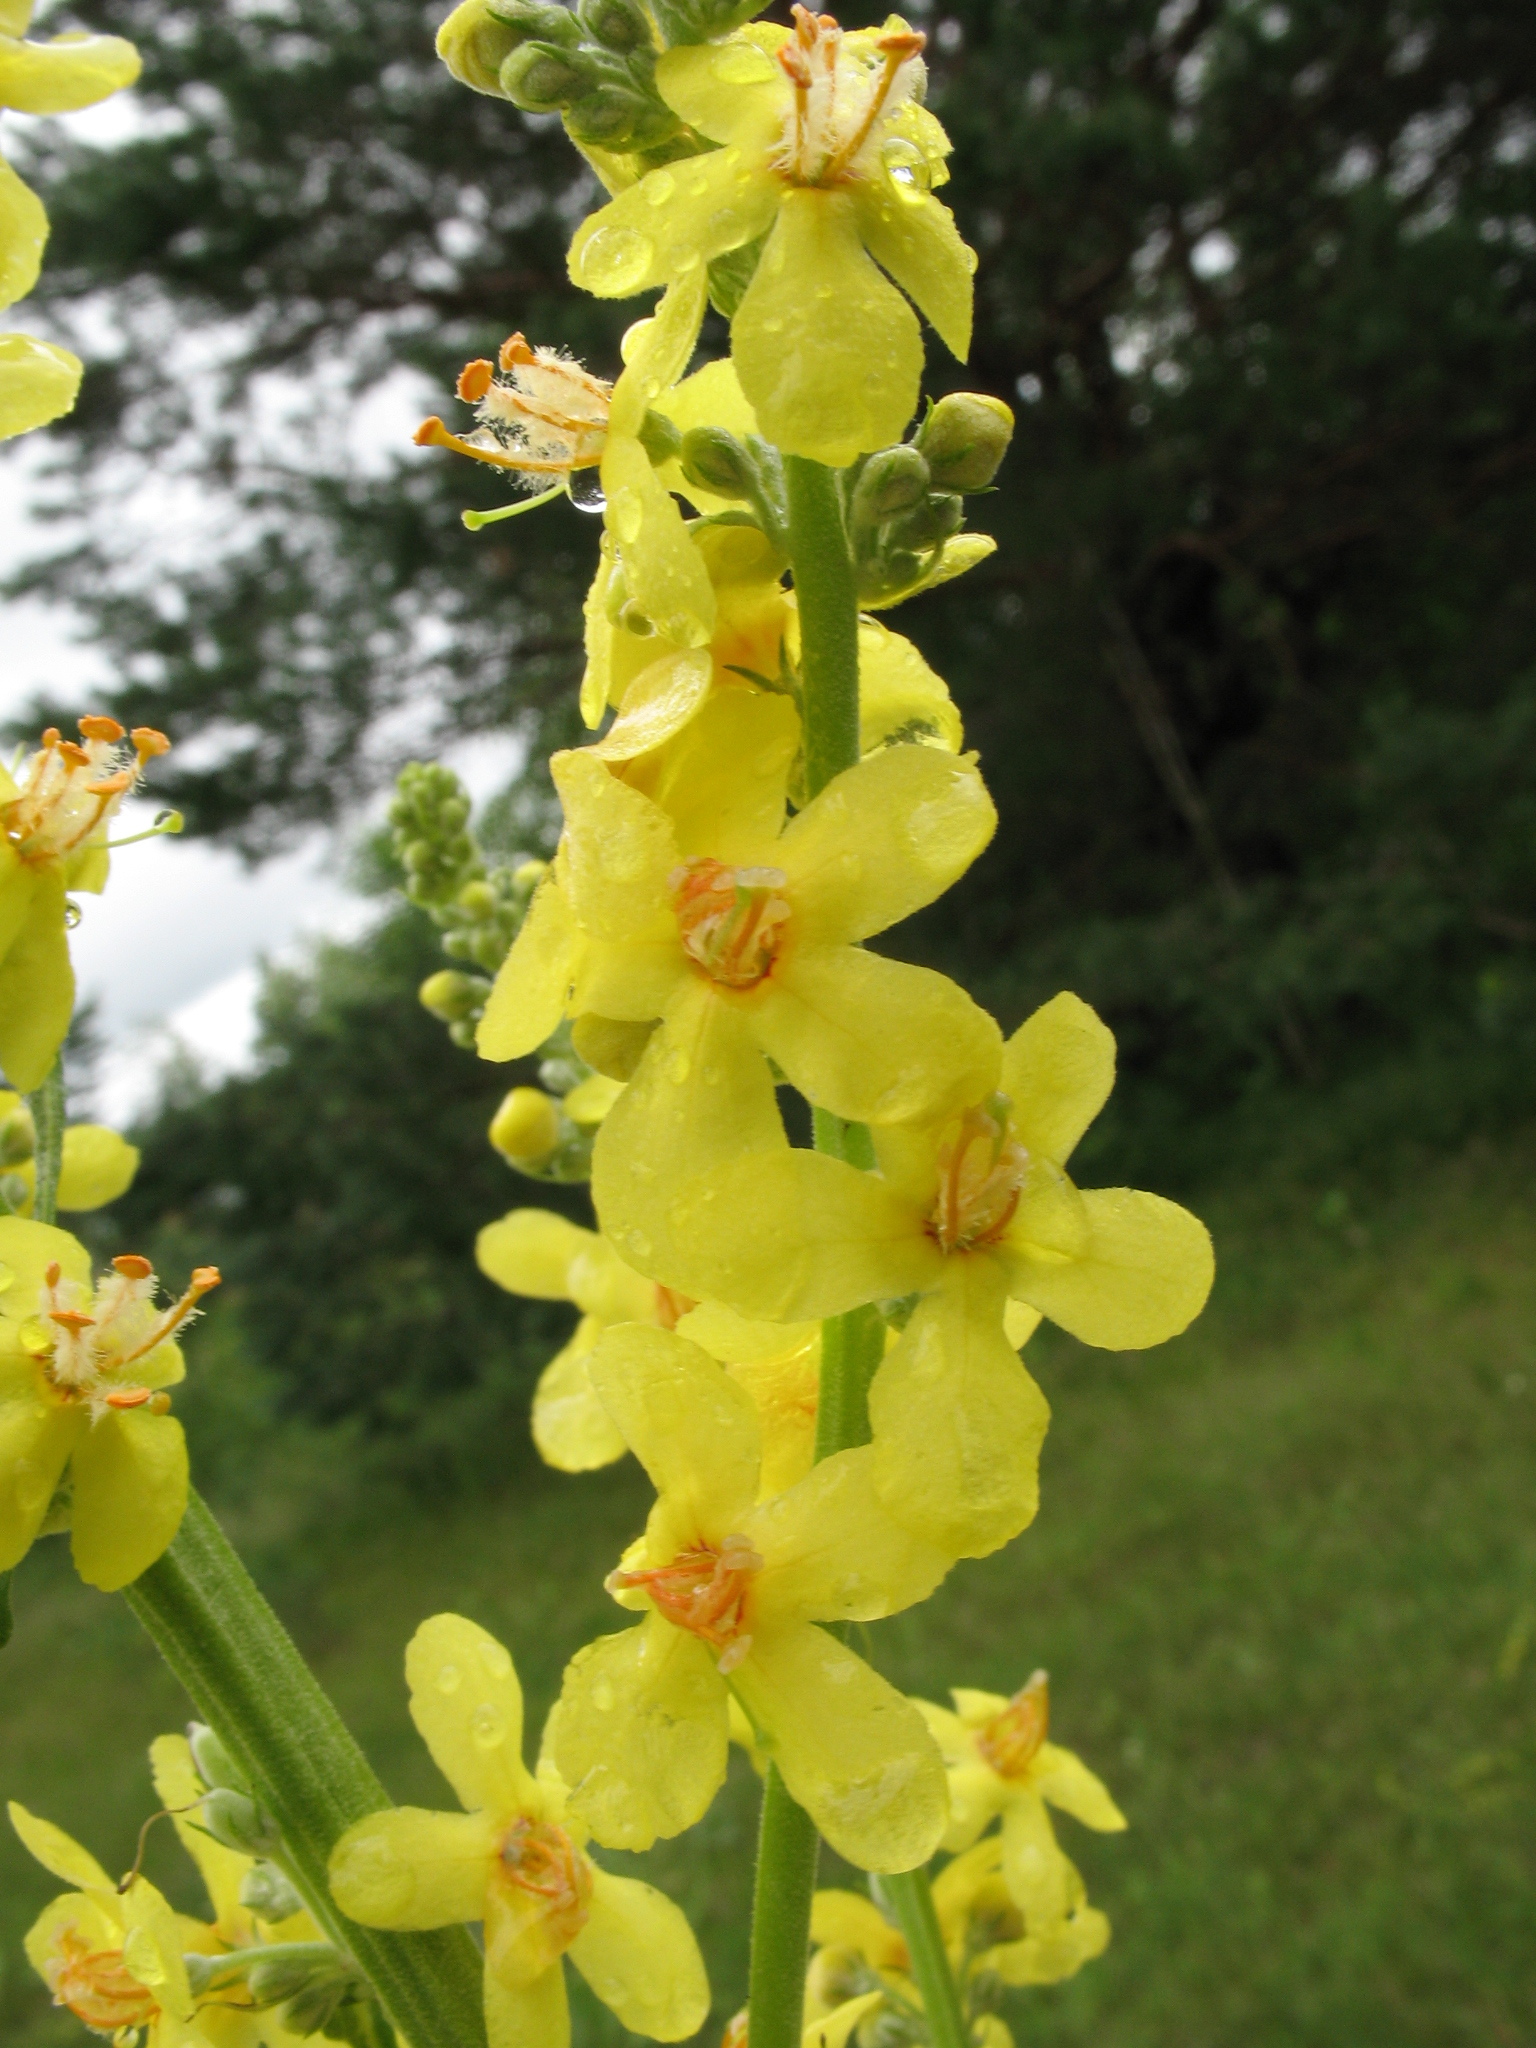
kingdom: Plantae
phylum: Tracheophyta
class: Magnoliopsida
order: Lamiales
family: Scrophulariaceae
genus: Verbascum
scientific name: Verbascum lychnitis
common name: White mullein
